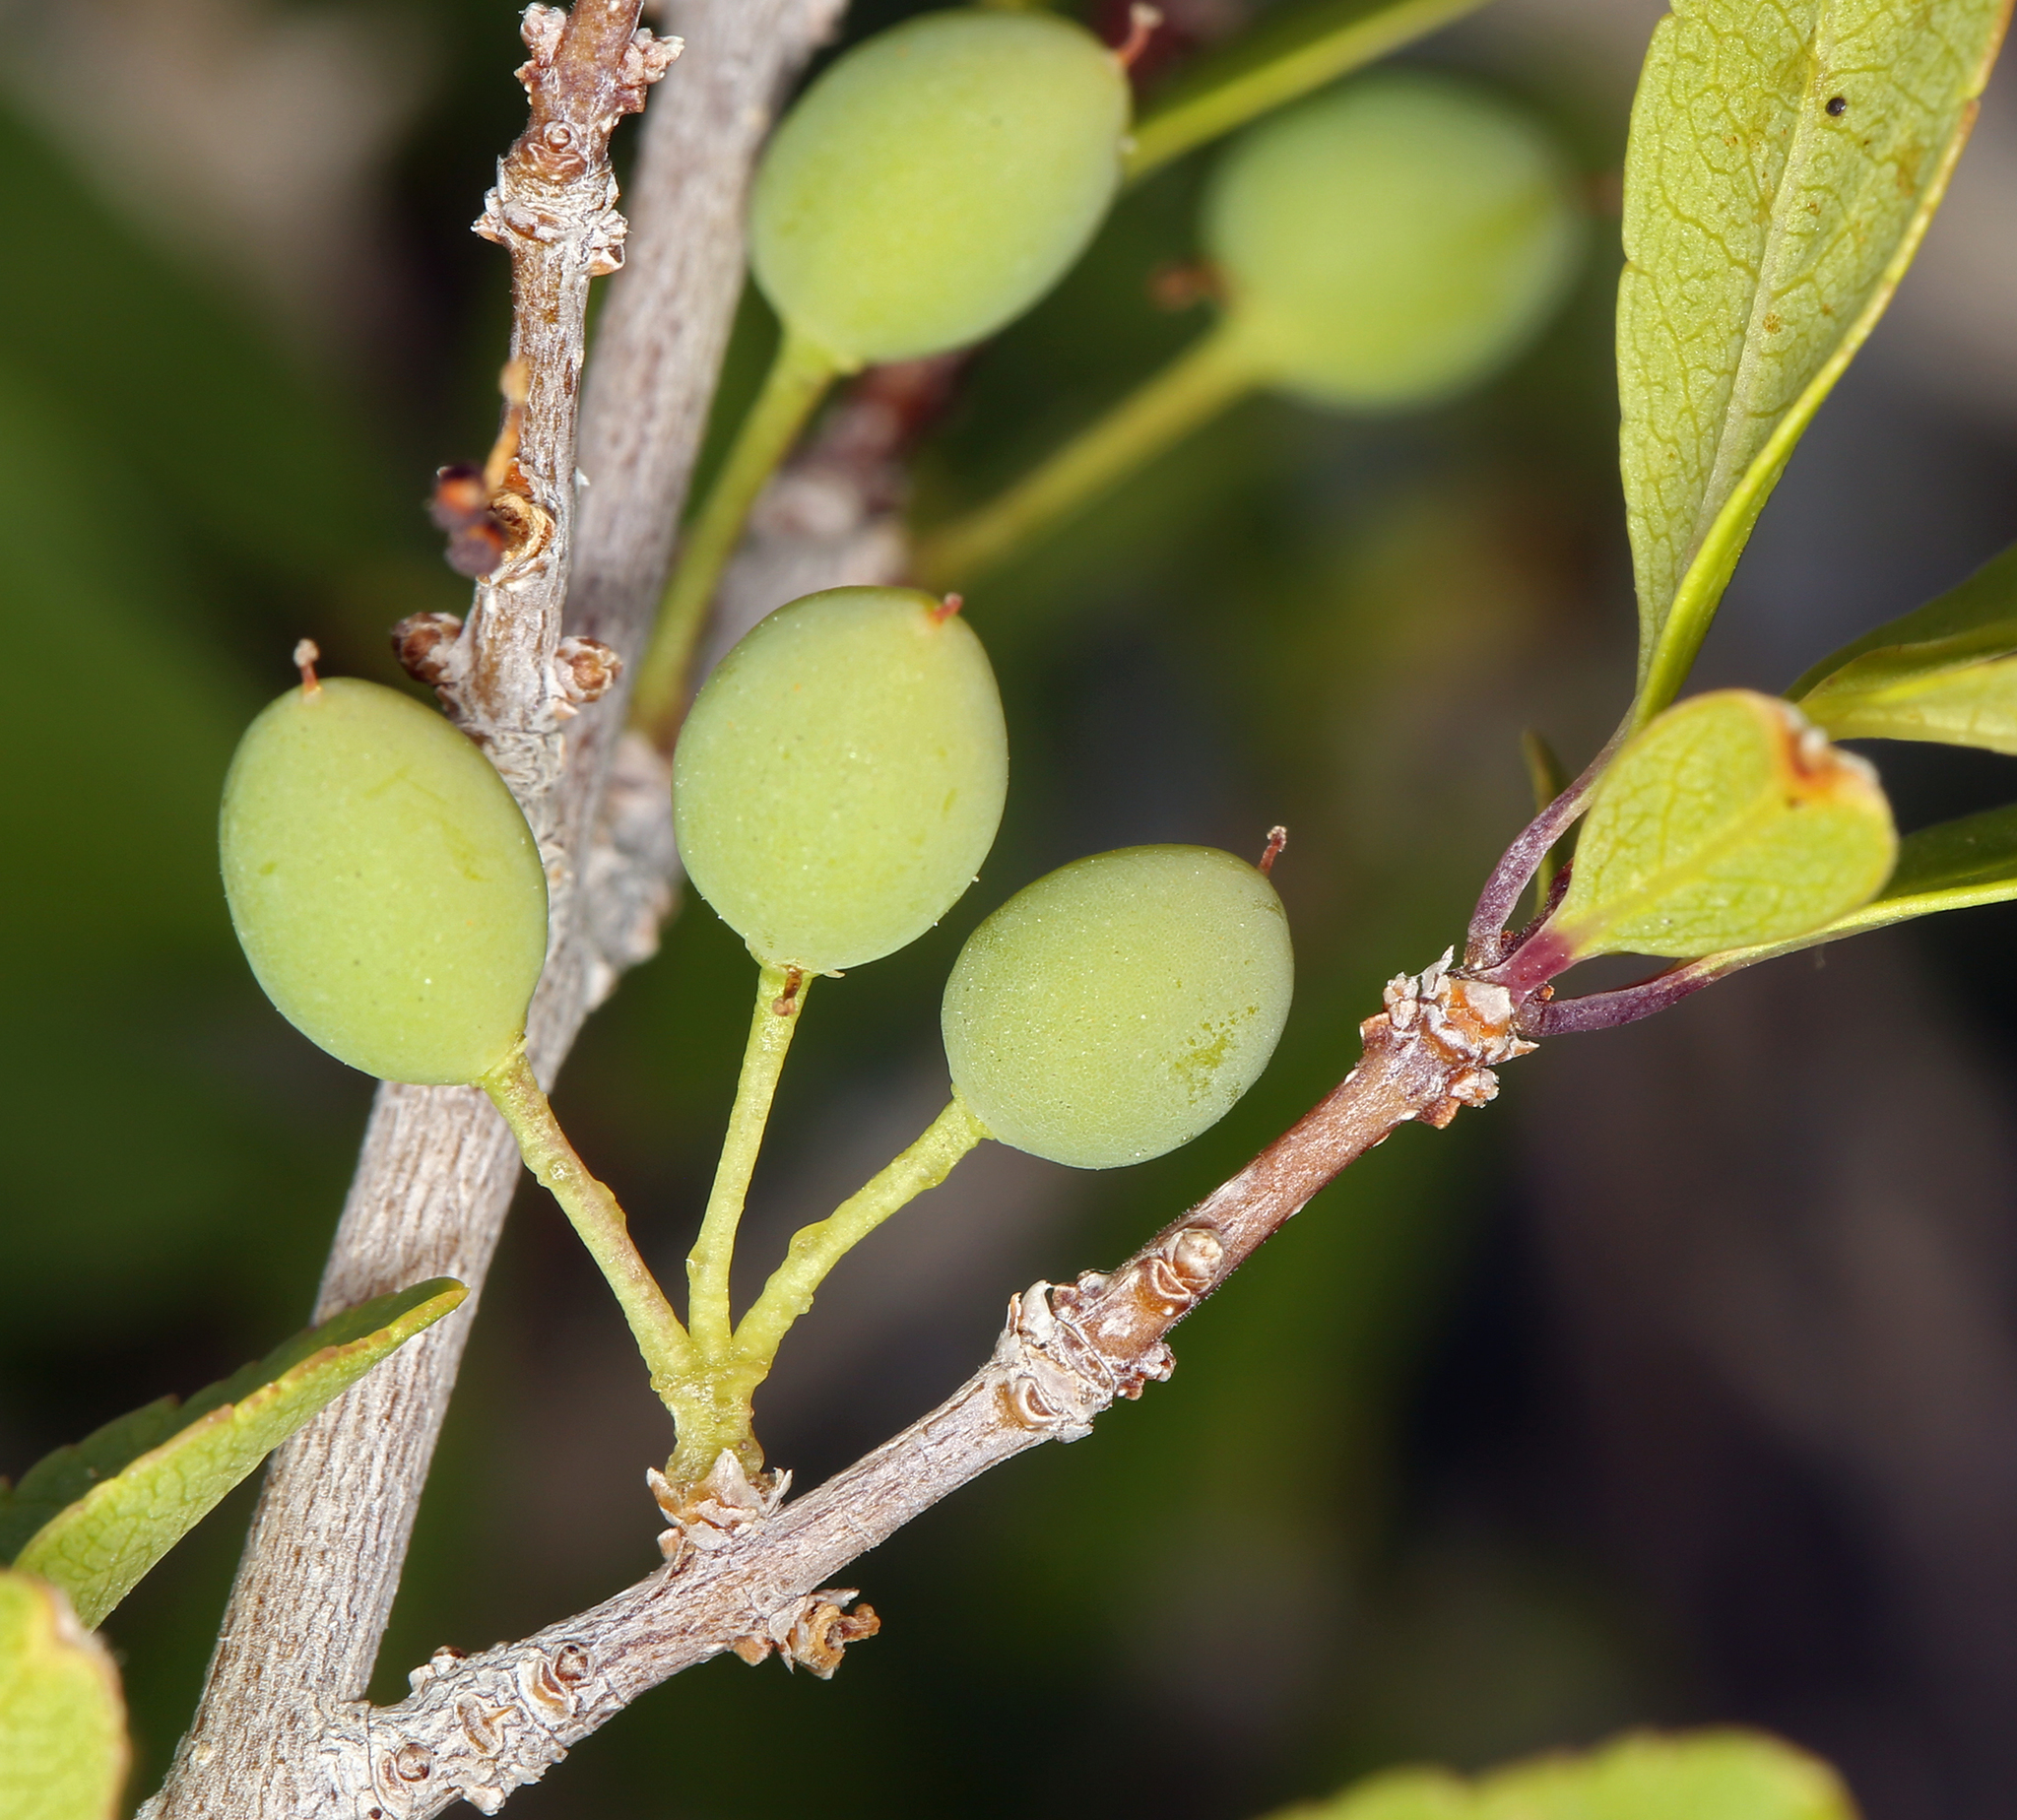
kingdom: Plantae
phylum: Tracheophyta
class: Magnoliopsida
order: Lamiales
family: Oleaceae
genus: Forestiera
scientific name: Forestiera pubescens
